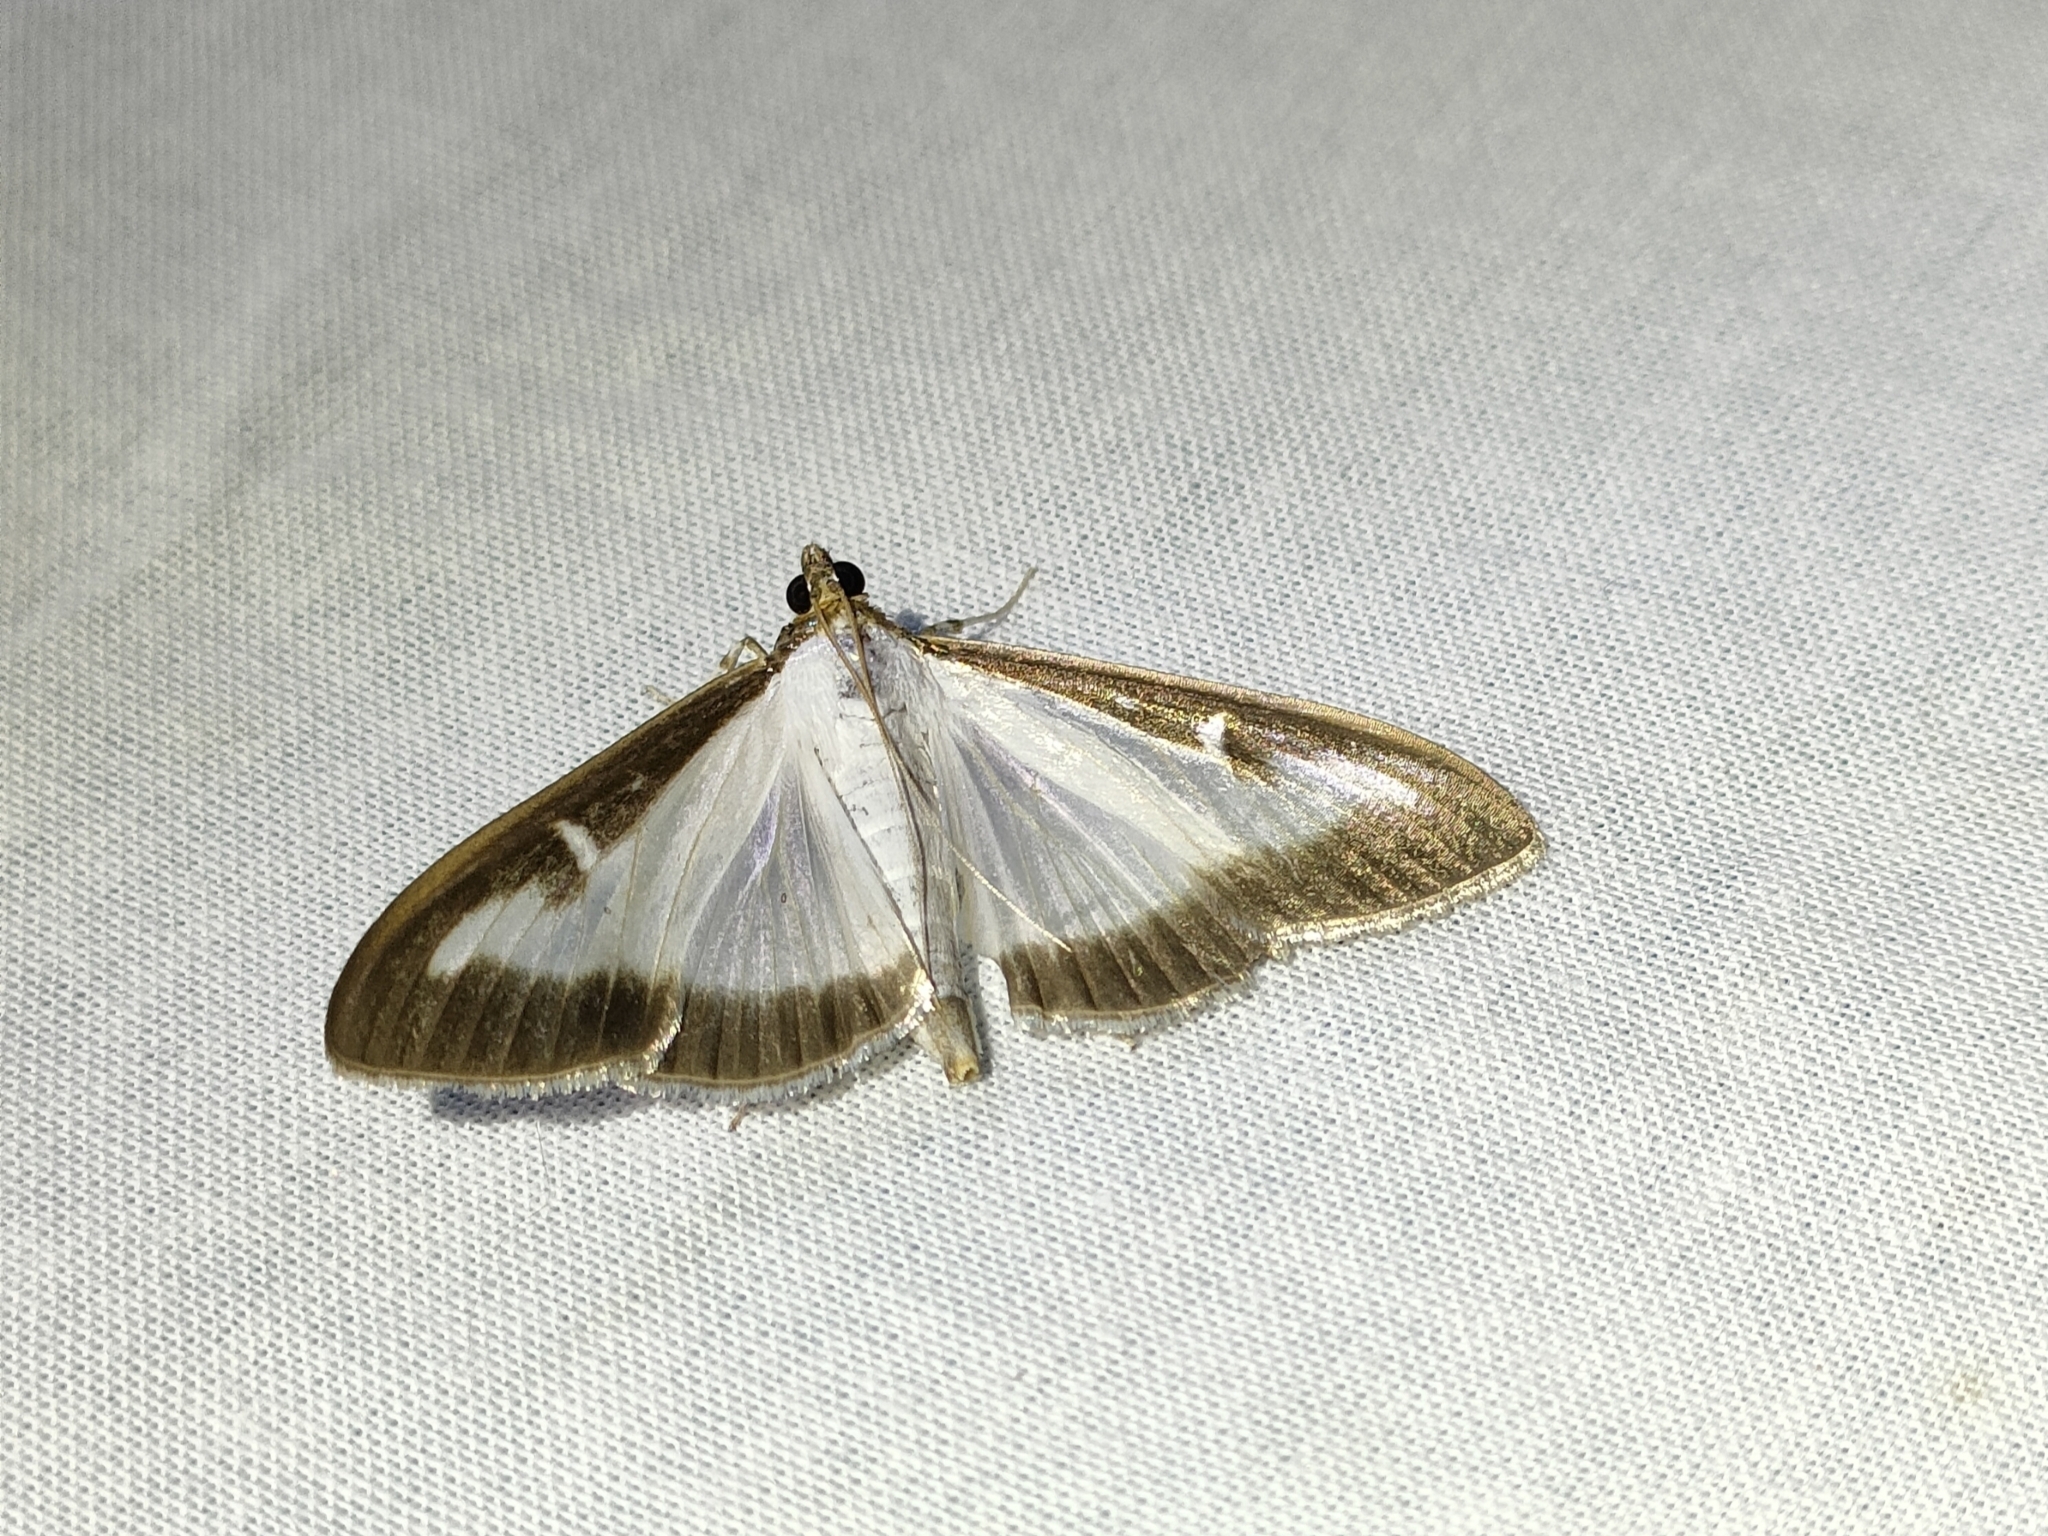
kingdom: Animalia
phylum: Arthropoda
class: Insecta
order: Lepidoptera
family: Crambidae
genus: Cydalima
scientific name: Cydalima perspectalis
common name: Box tree moth
